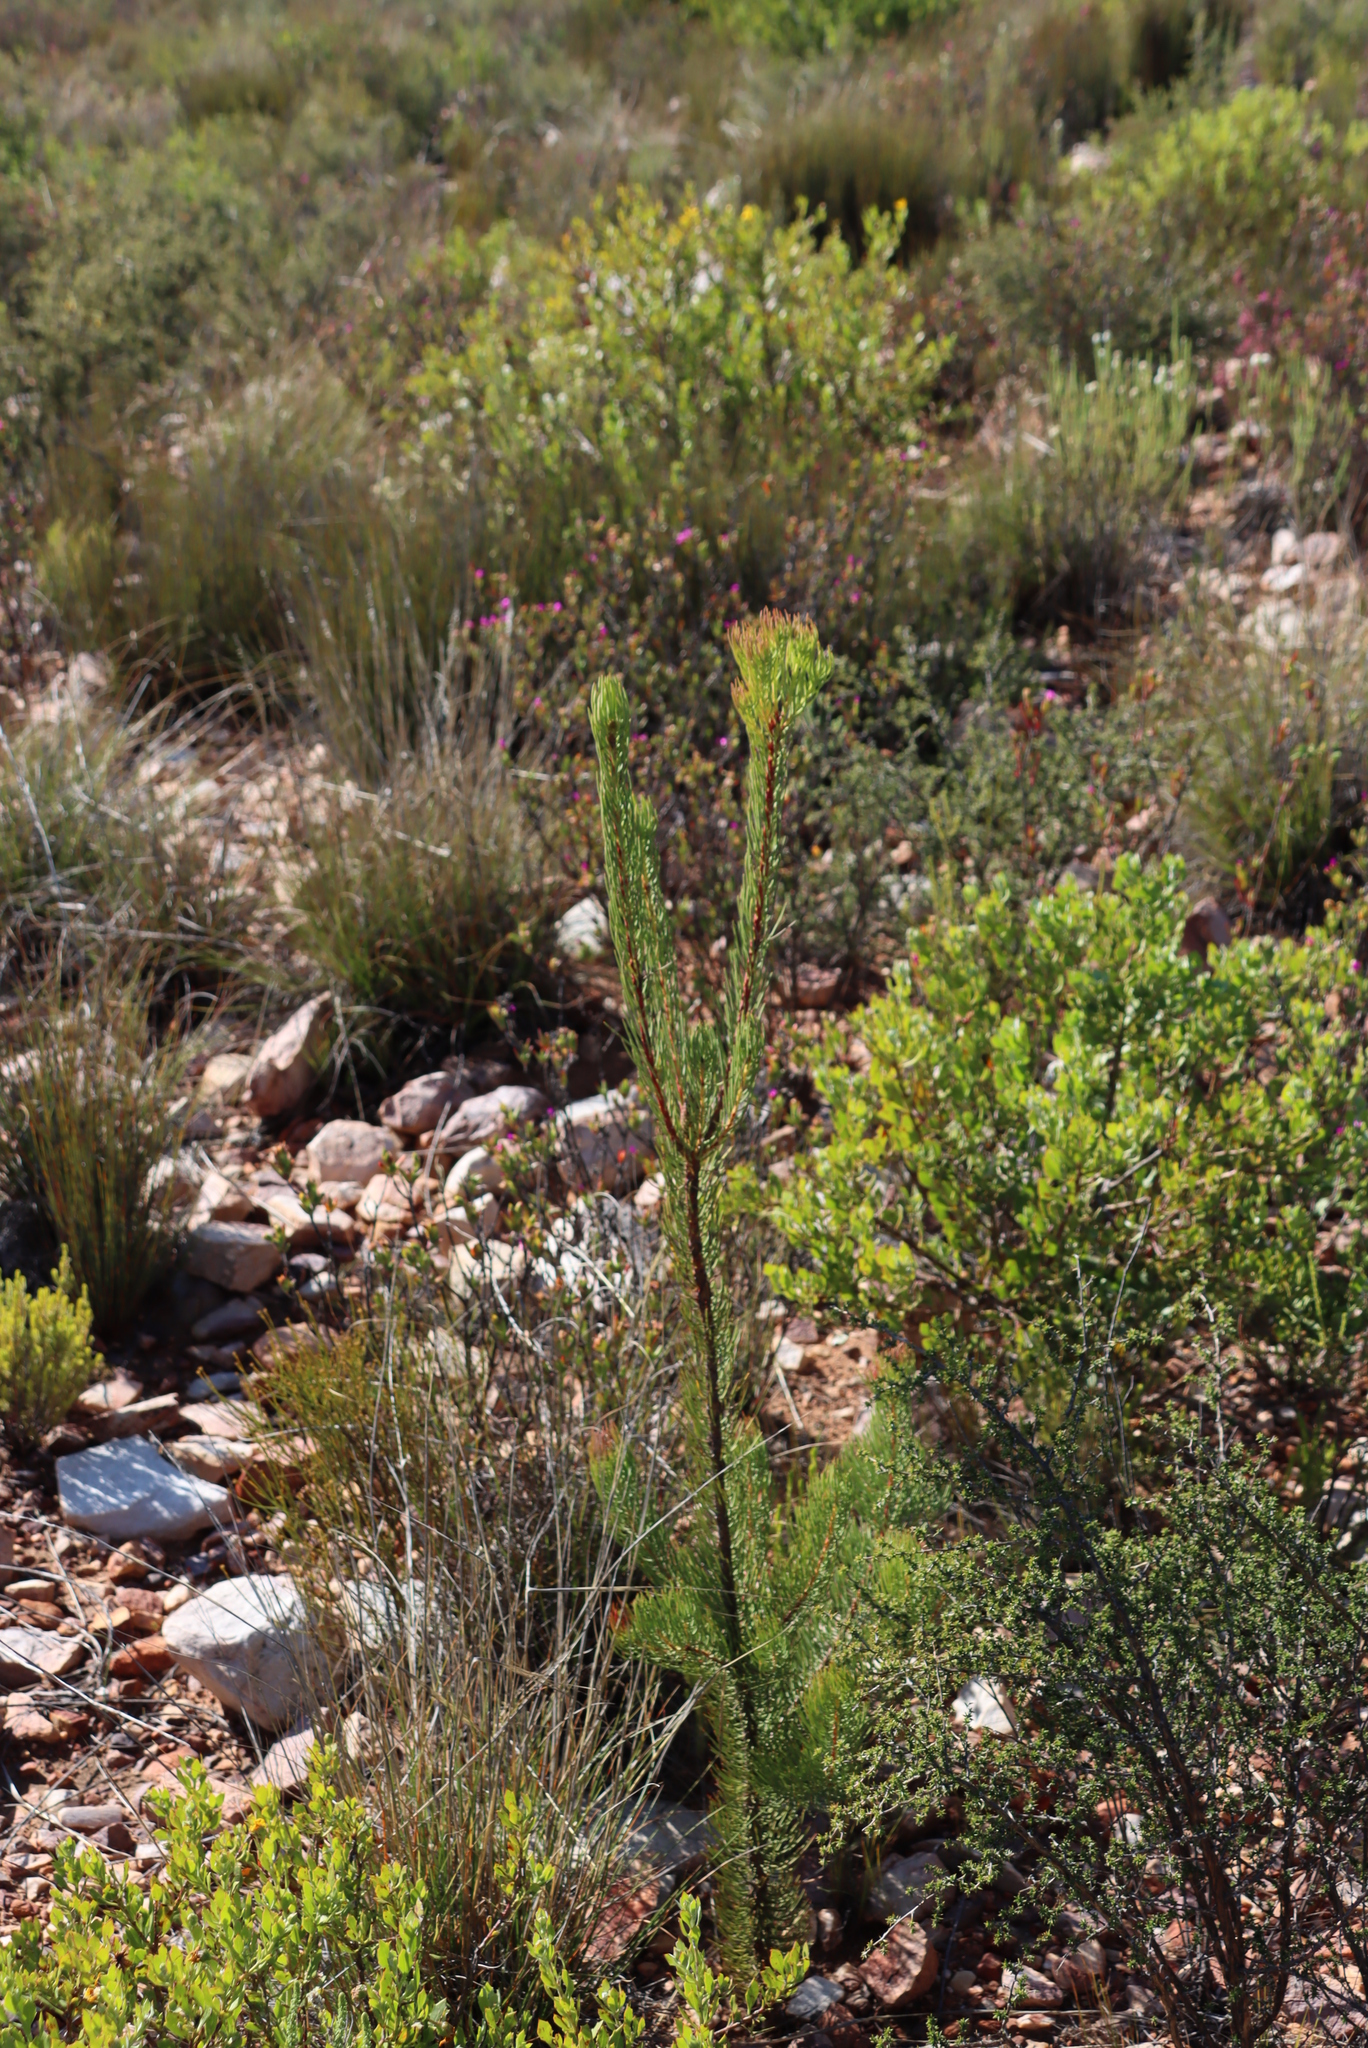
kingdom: Plantae
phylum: Tracheophyta
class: Magnoliopsida
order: Proteales
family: Proteaceae
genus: Leucadendron
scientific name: Leucadendron nobile
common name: Karoo conebush
